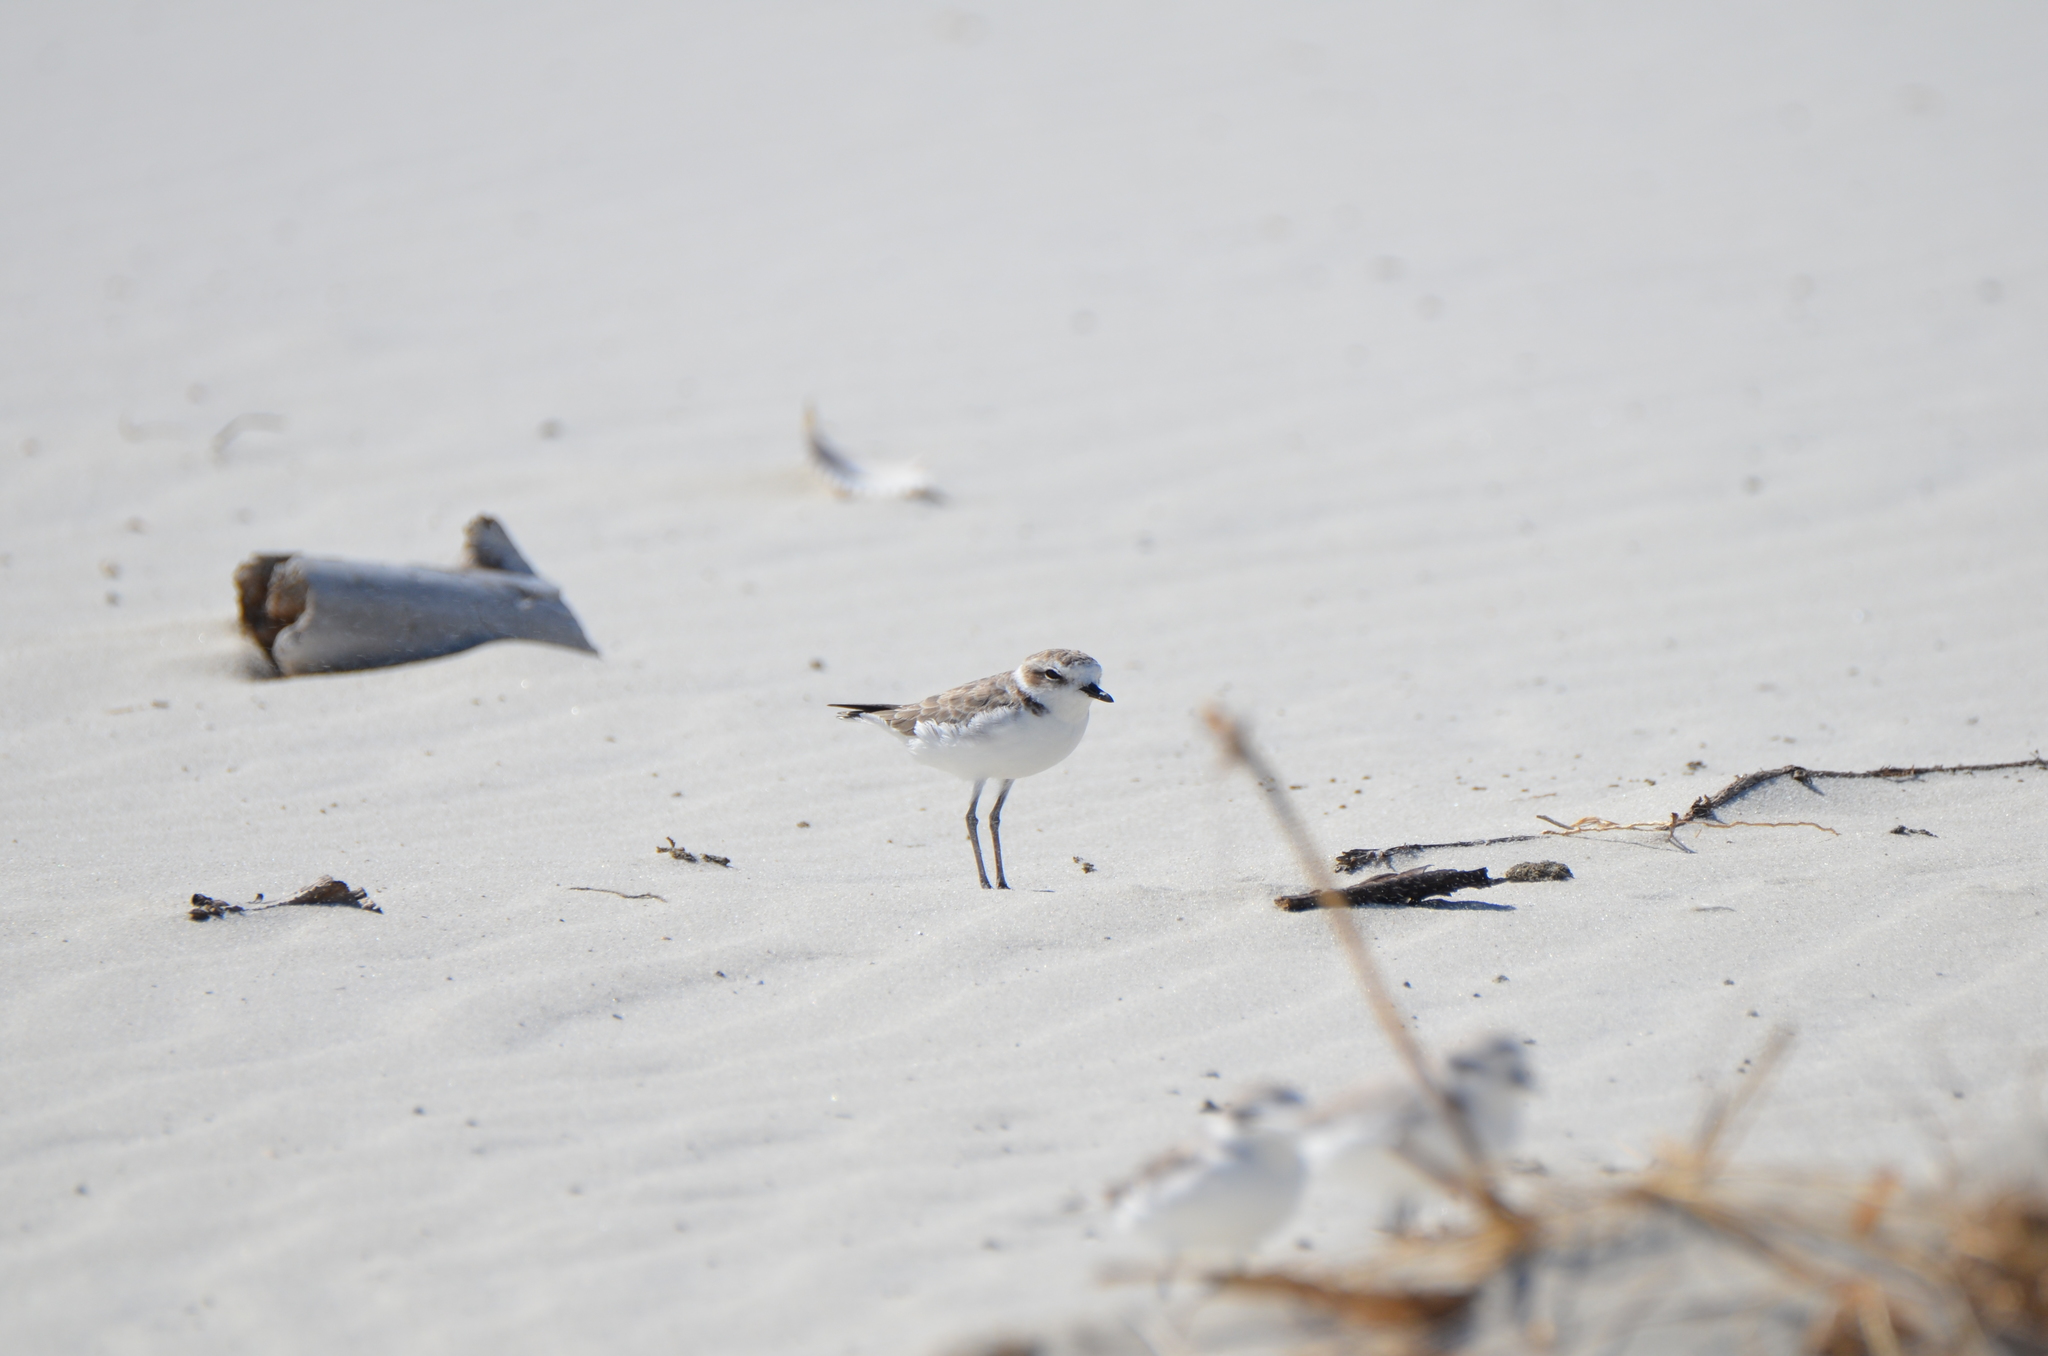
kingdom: Animalia
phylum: Chordata
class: Aves
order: Charadriiformes
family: Charadriidae
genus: Anarhynchus
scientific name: Anarhynchus
